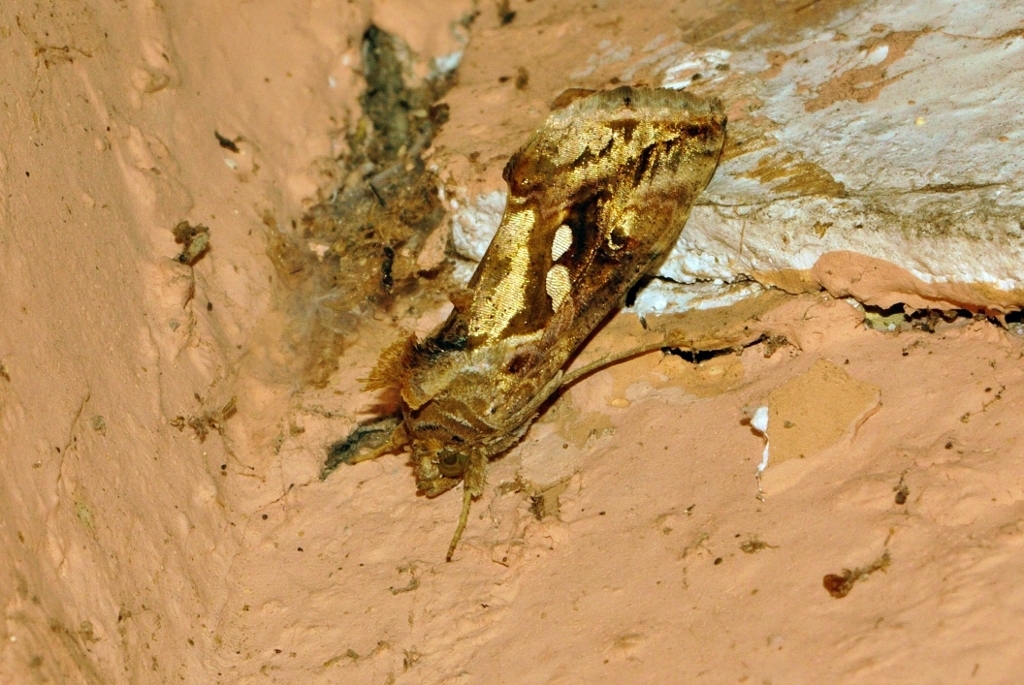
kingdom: Animalia
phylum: Arthropoda
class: Insecta
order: Lepidoptera
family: Noctuidae
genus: Chrysodeixis
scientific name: Chrysodeixis acuta
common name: Tunbridge wells gem
